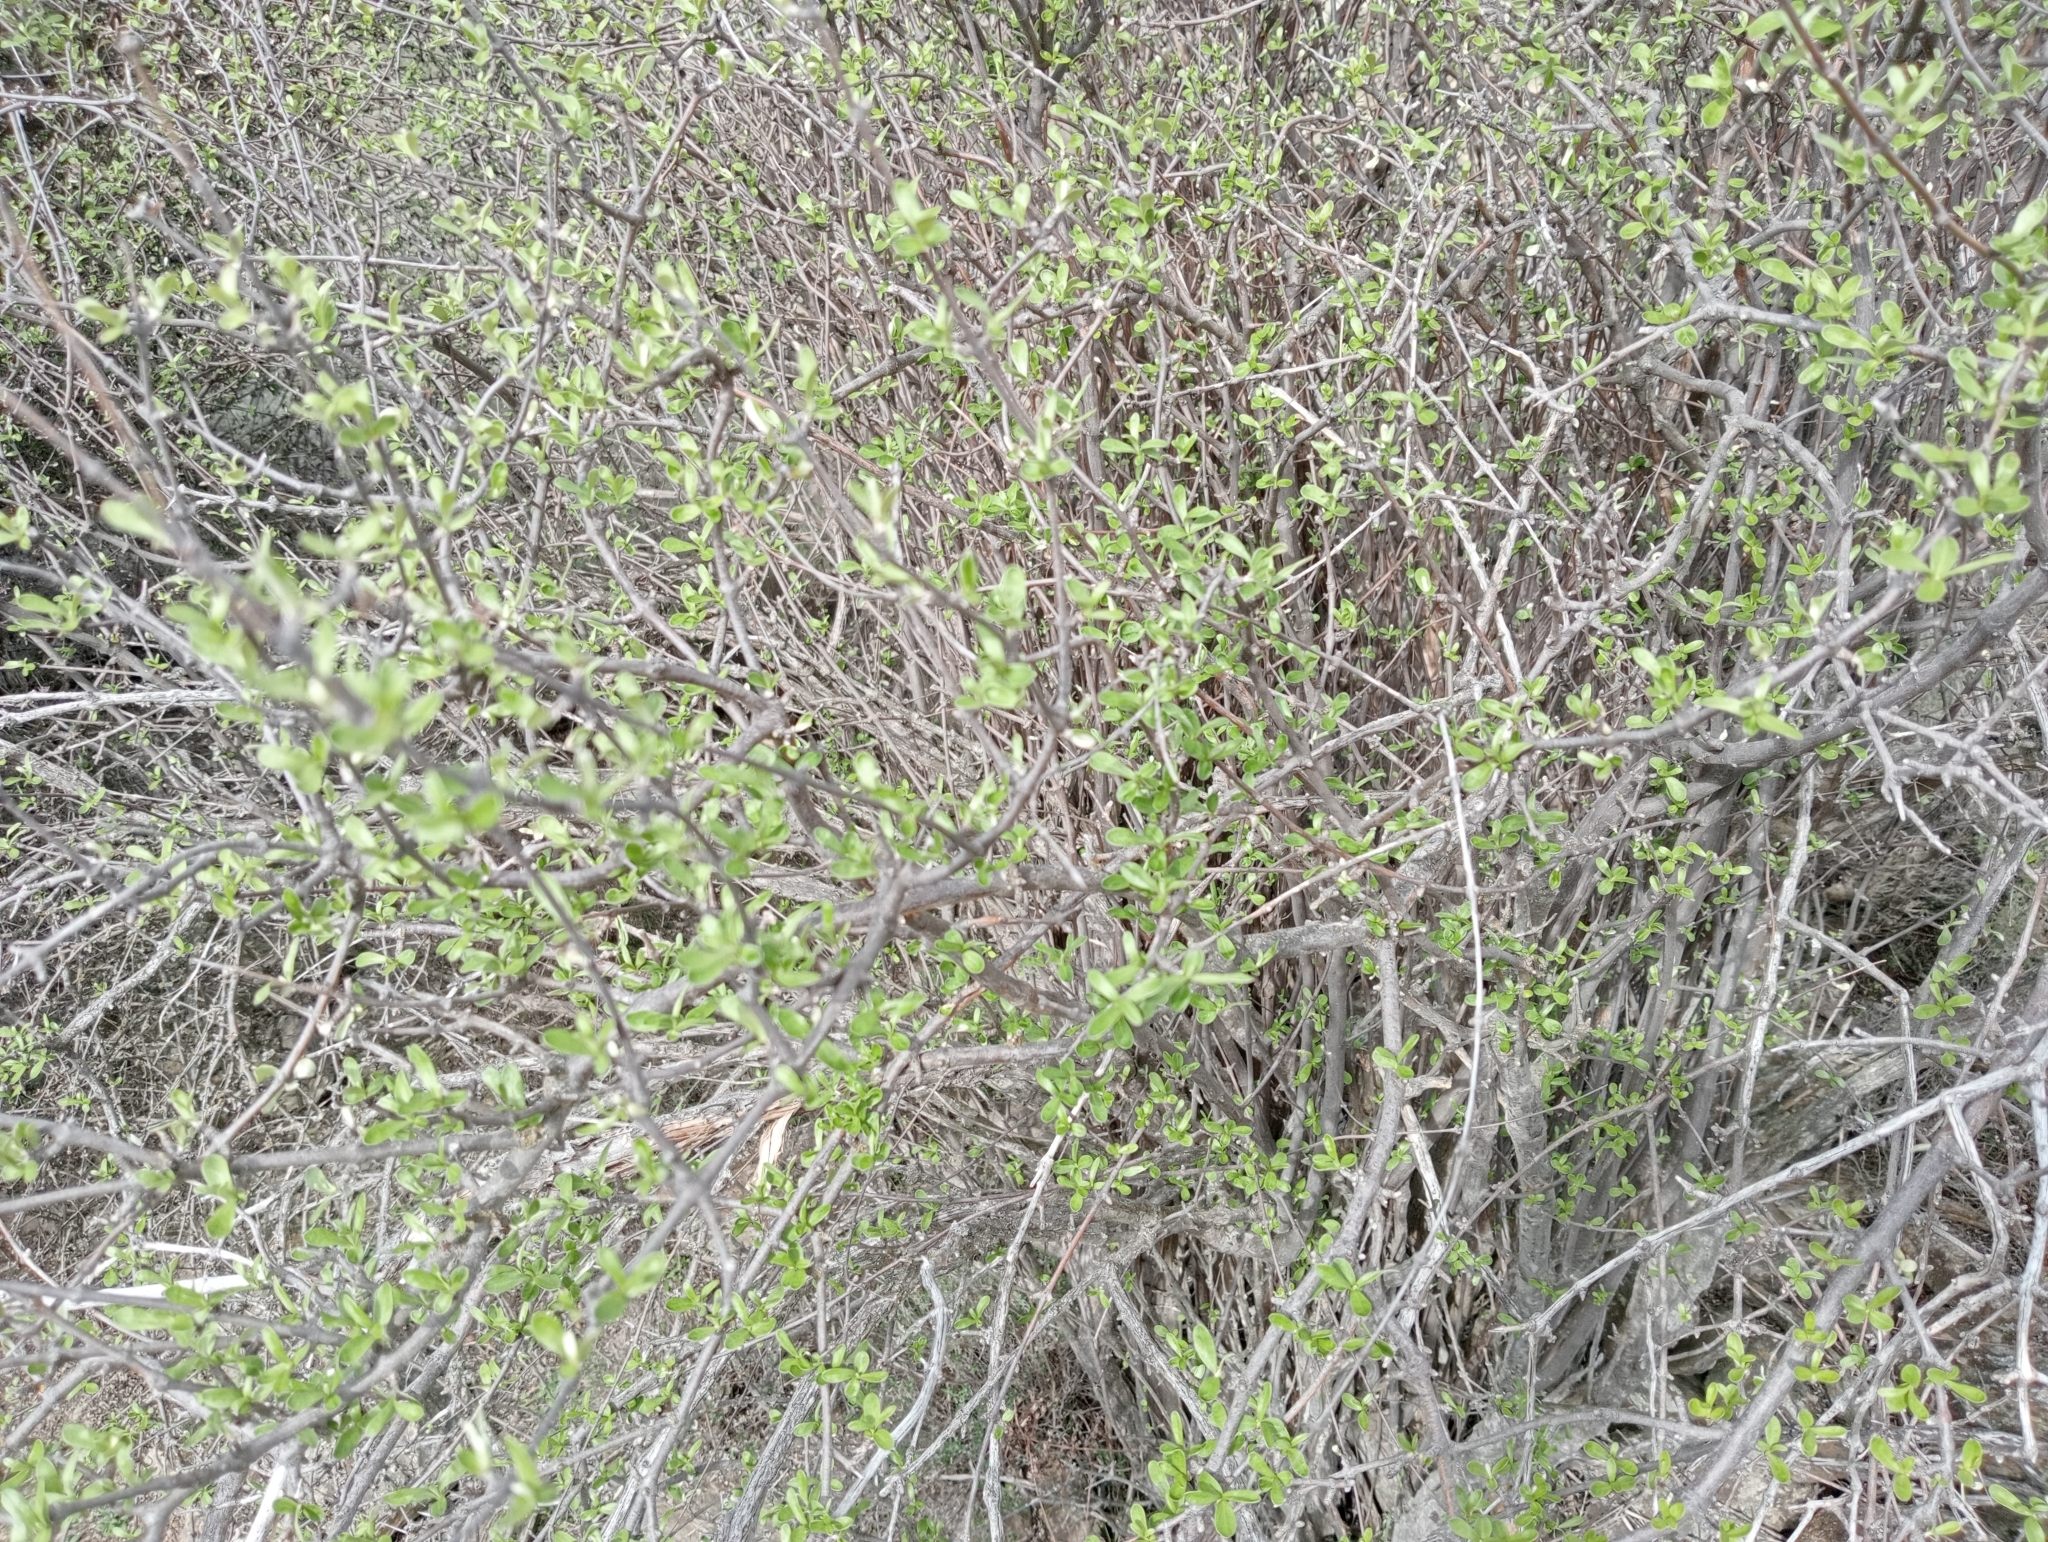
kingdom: Plantae
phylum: Tracheophyta
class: Magnoliopsida
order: Asterales
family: Asteraceae
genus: Olearia
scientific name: Olearia odorata
